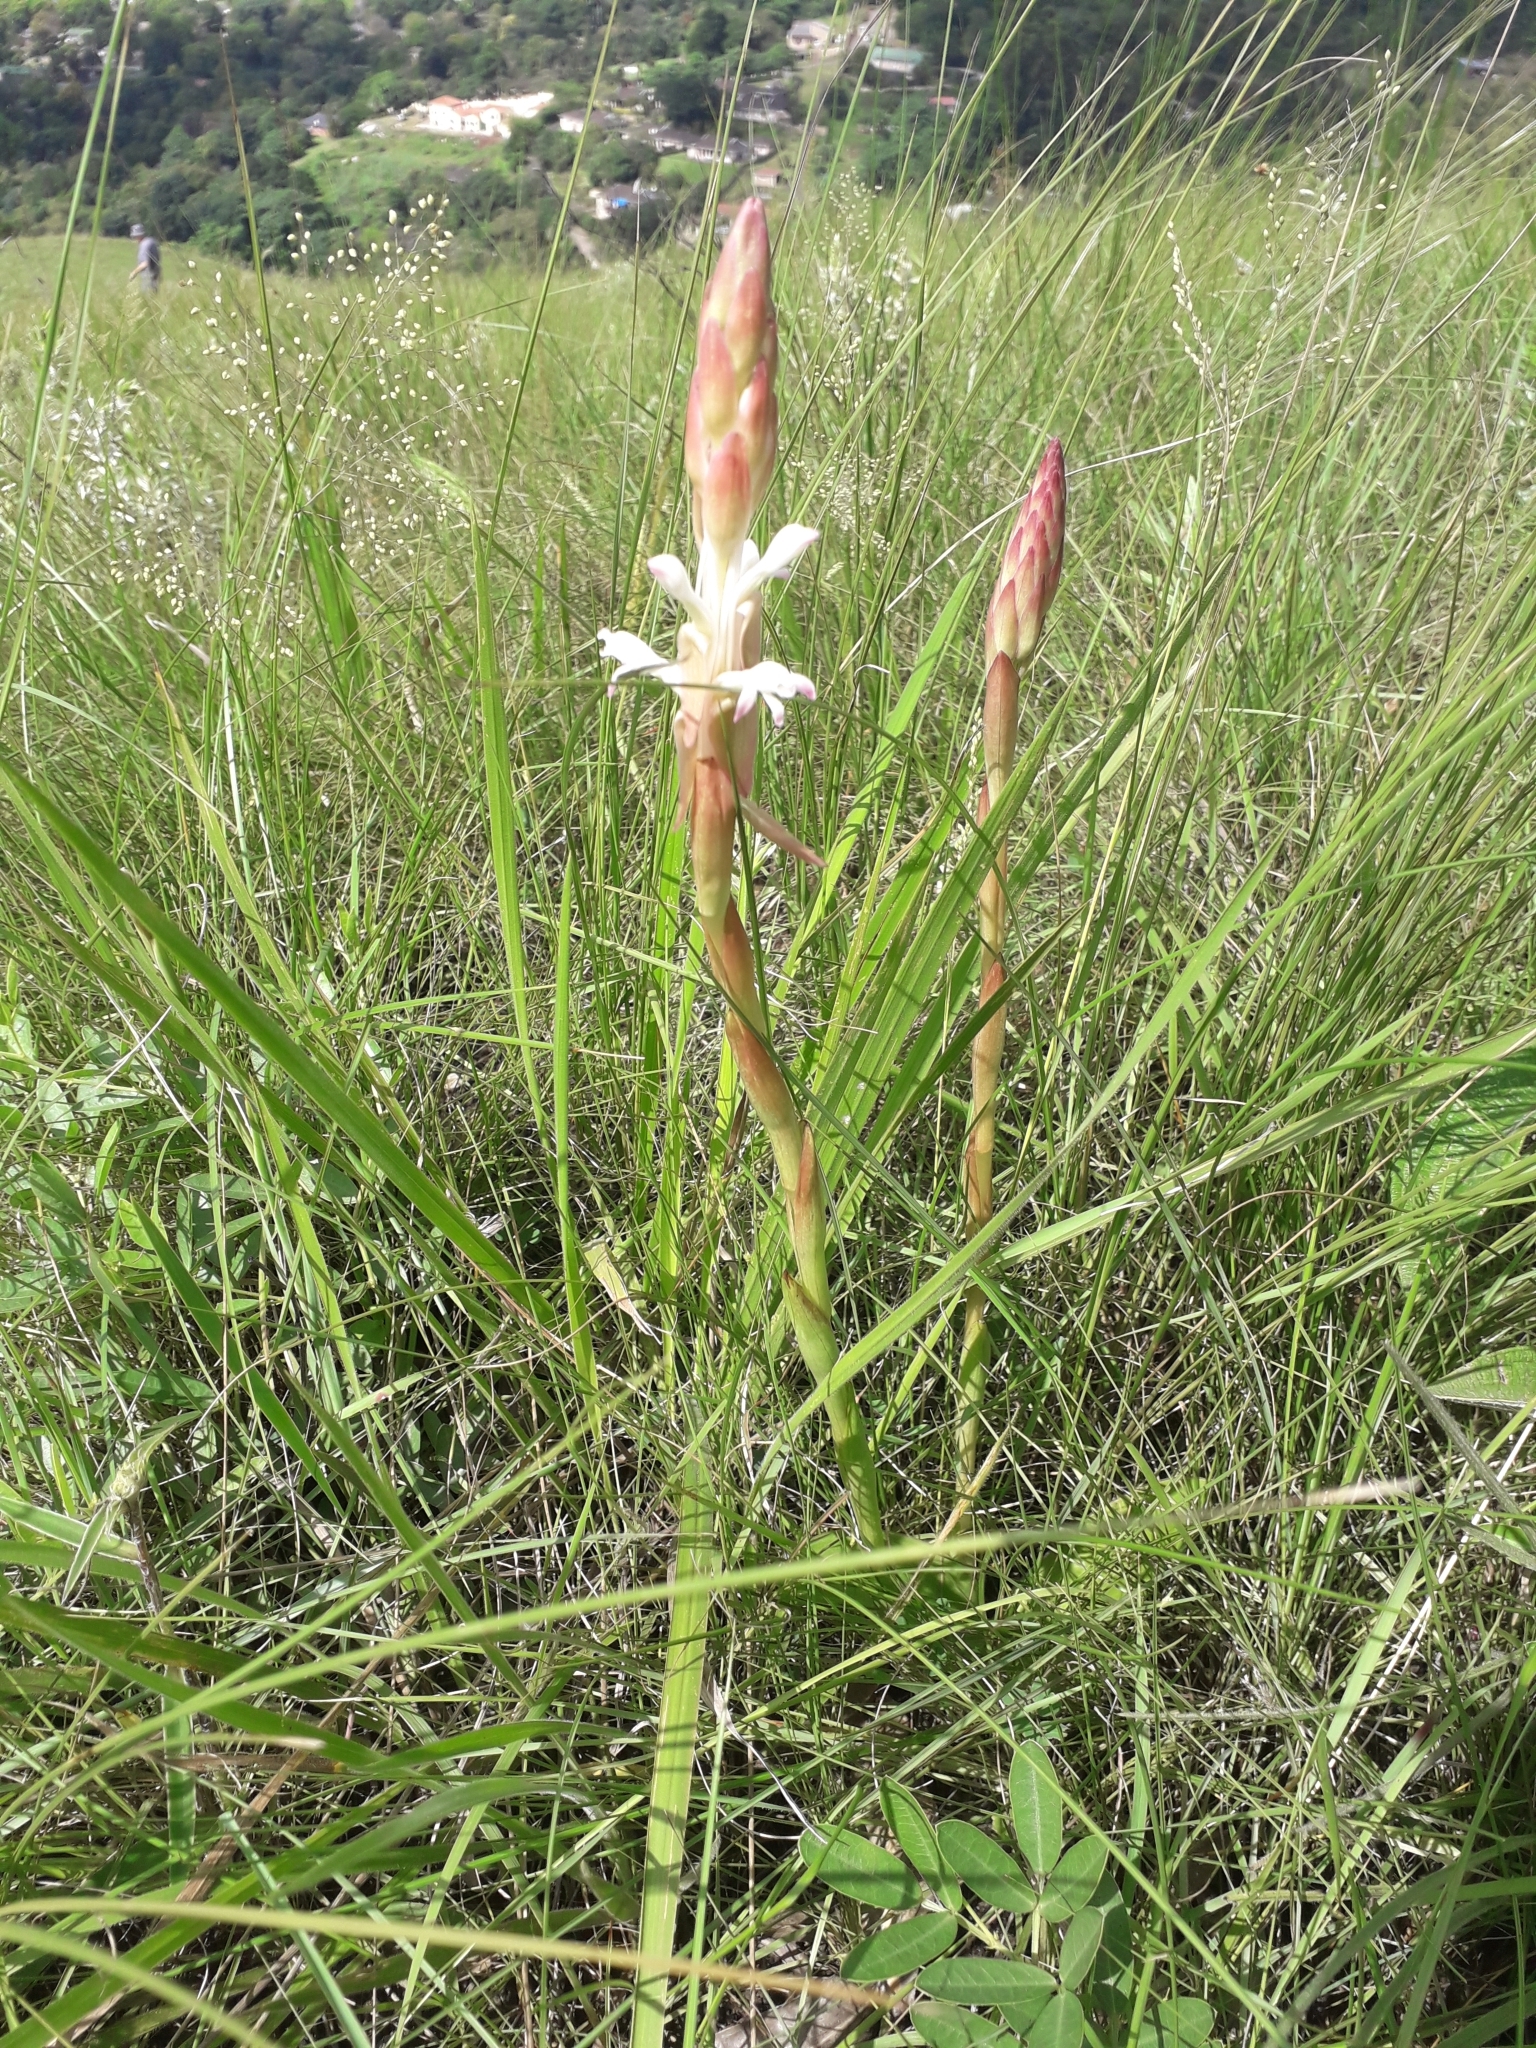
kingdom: Plantae
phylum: Tracheophyta
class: Liliopsida
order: Asparagales
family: Orchidaceae
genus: Satyrium
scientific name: Satyrium longicauda
